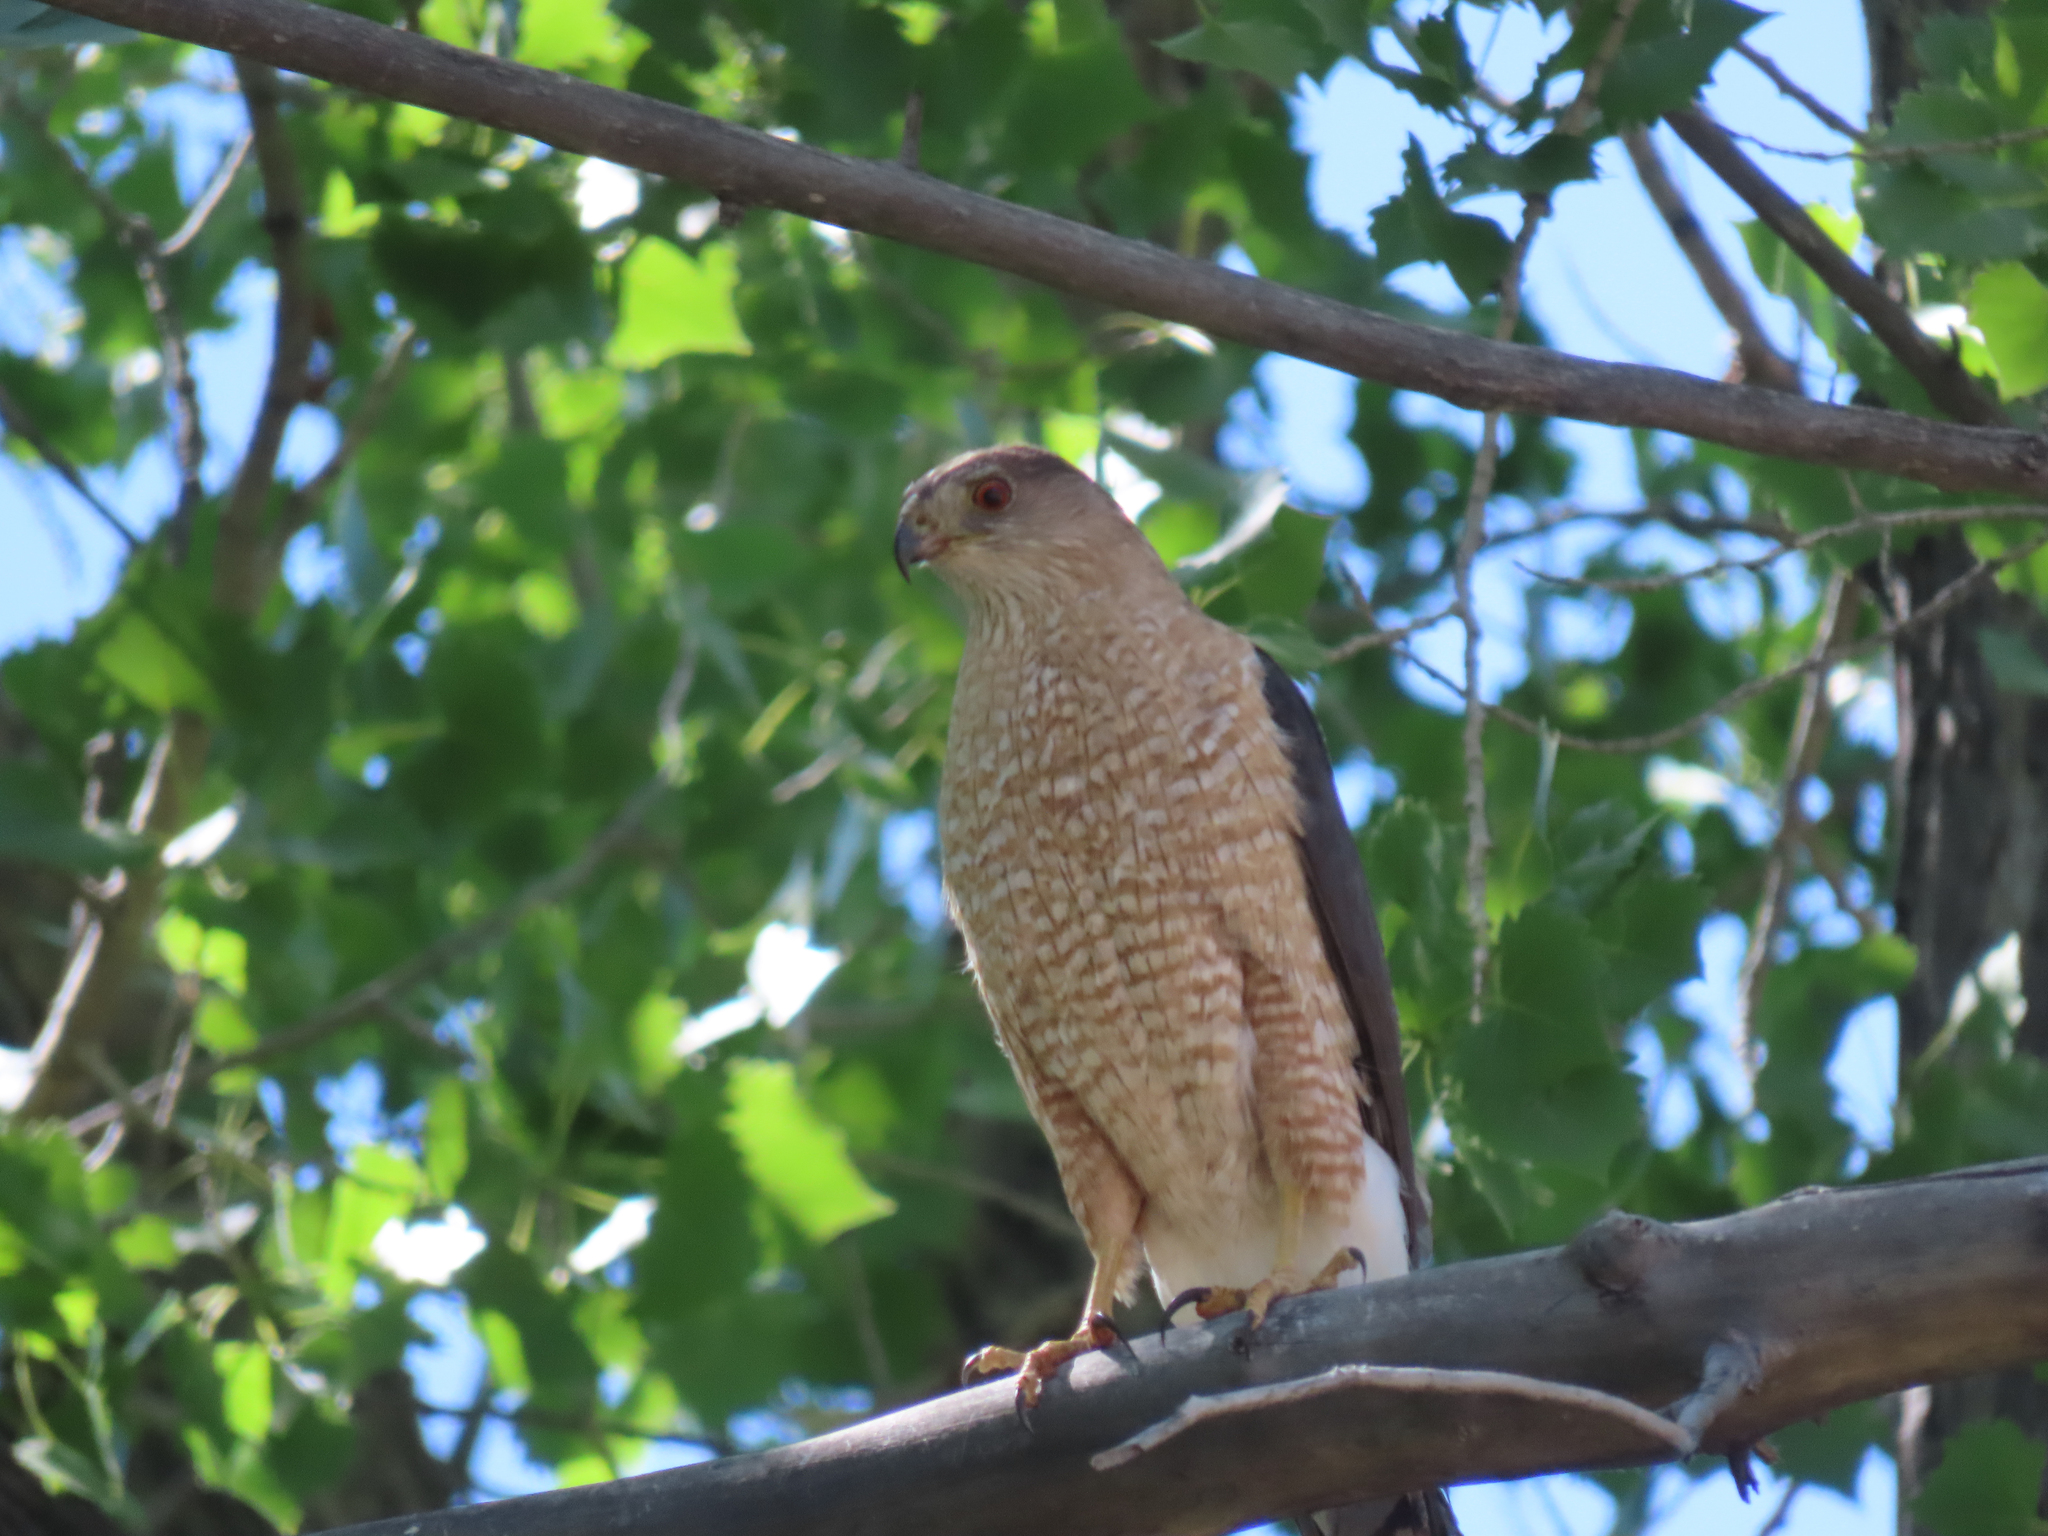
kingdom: Animalia
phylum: Chordata
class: Aves
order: Accipitriformes
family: Accipitridae
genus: Accipiter
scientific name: Accipiter cooperii
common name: Cooper's hawk
